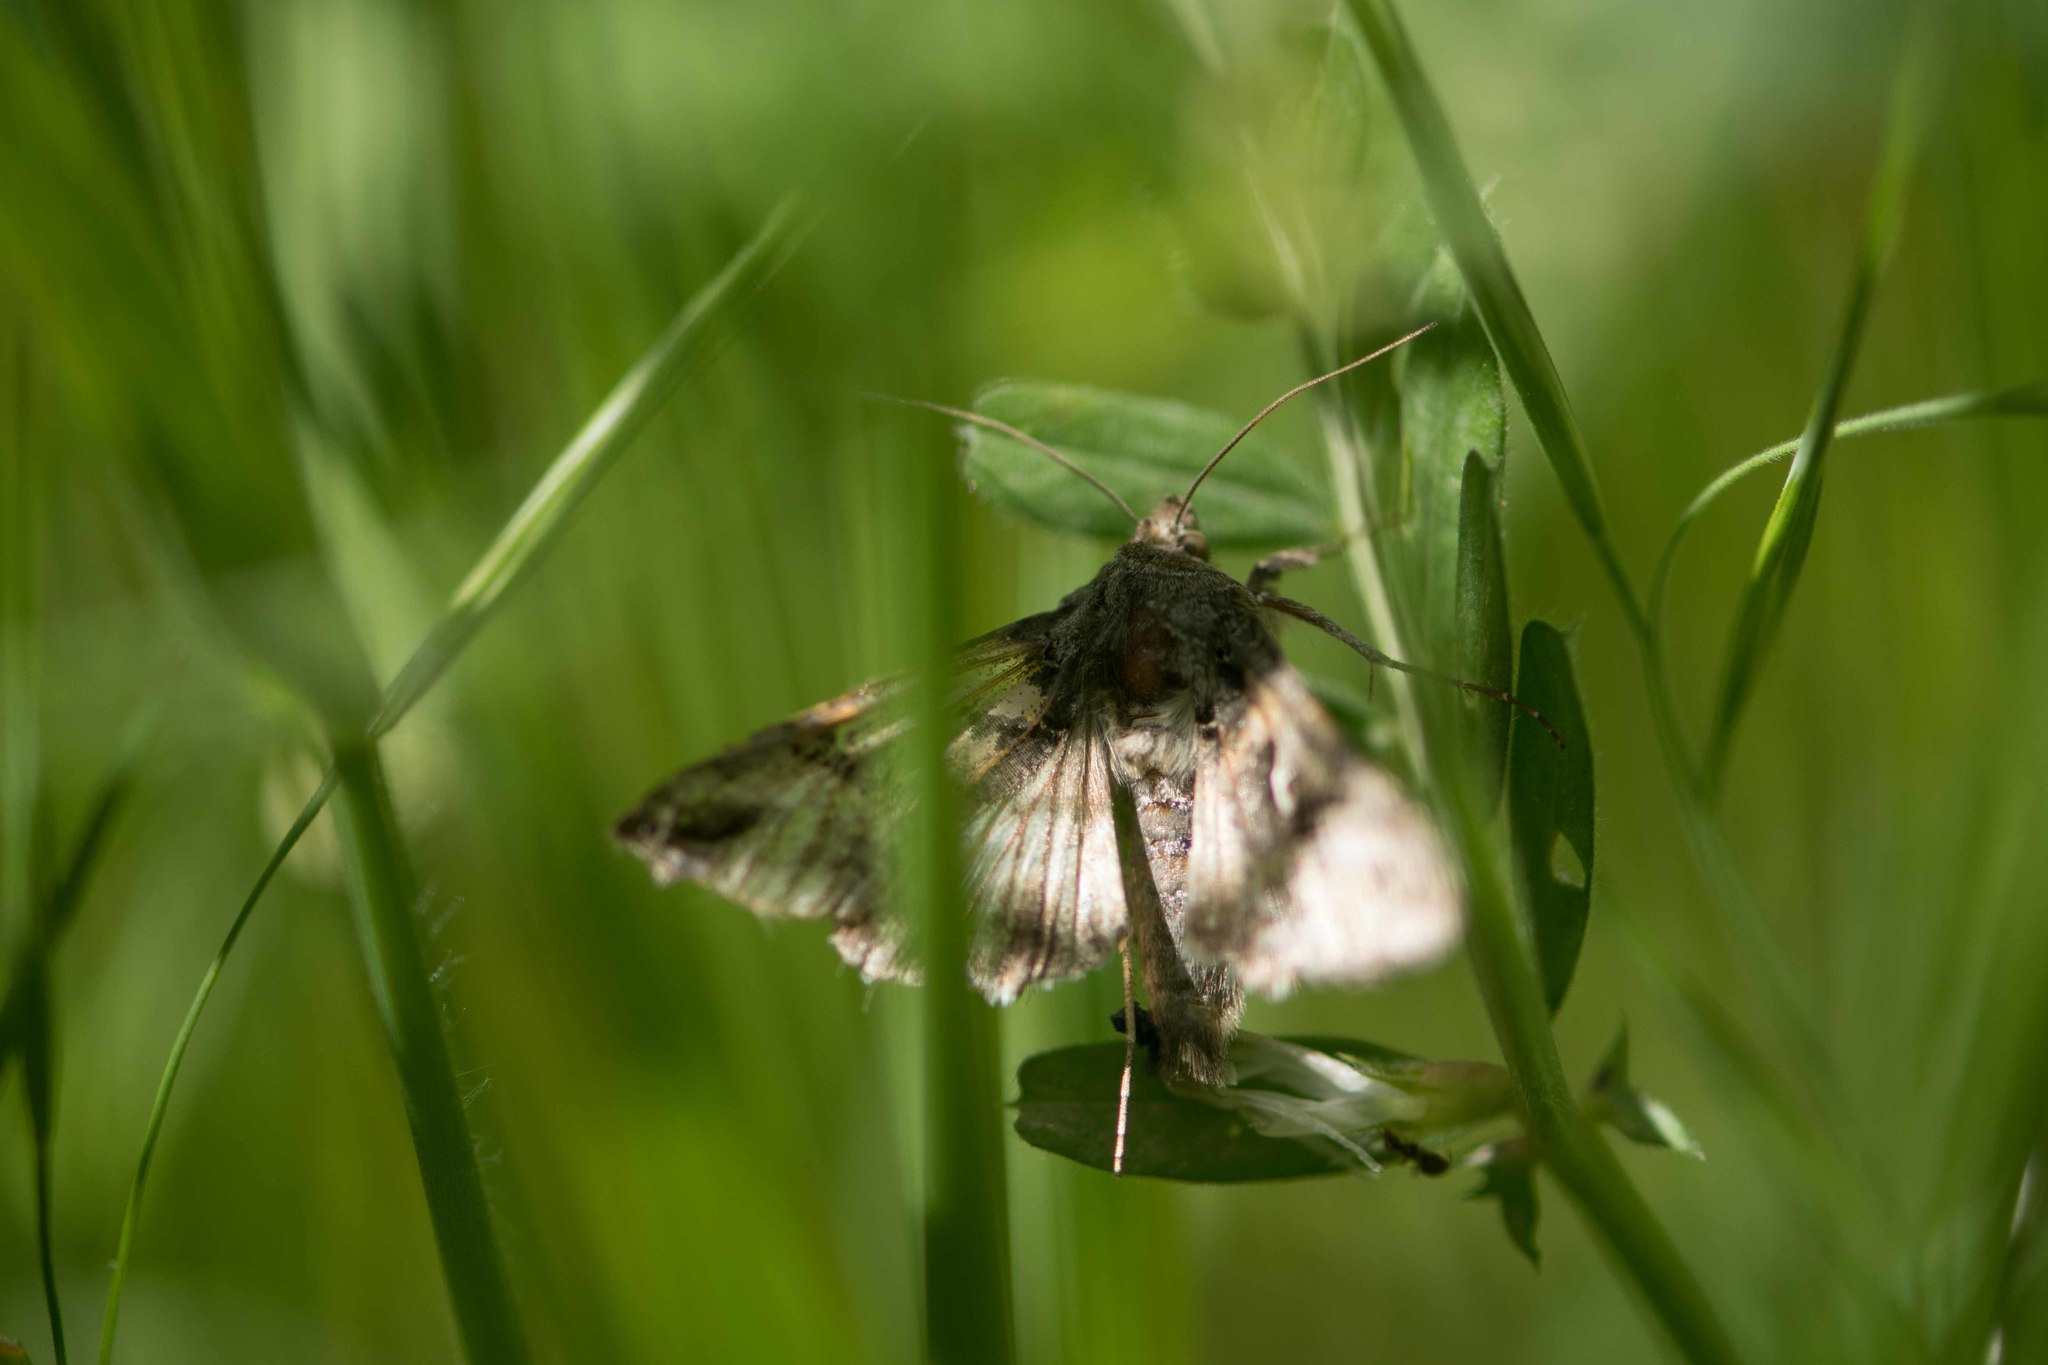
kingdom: Animalia
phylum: Arthropoda
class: Insecta
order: Lepidoptera
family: Noctuidae
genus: Autographa
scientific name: Autographa gamma
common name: Silver y
